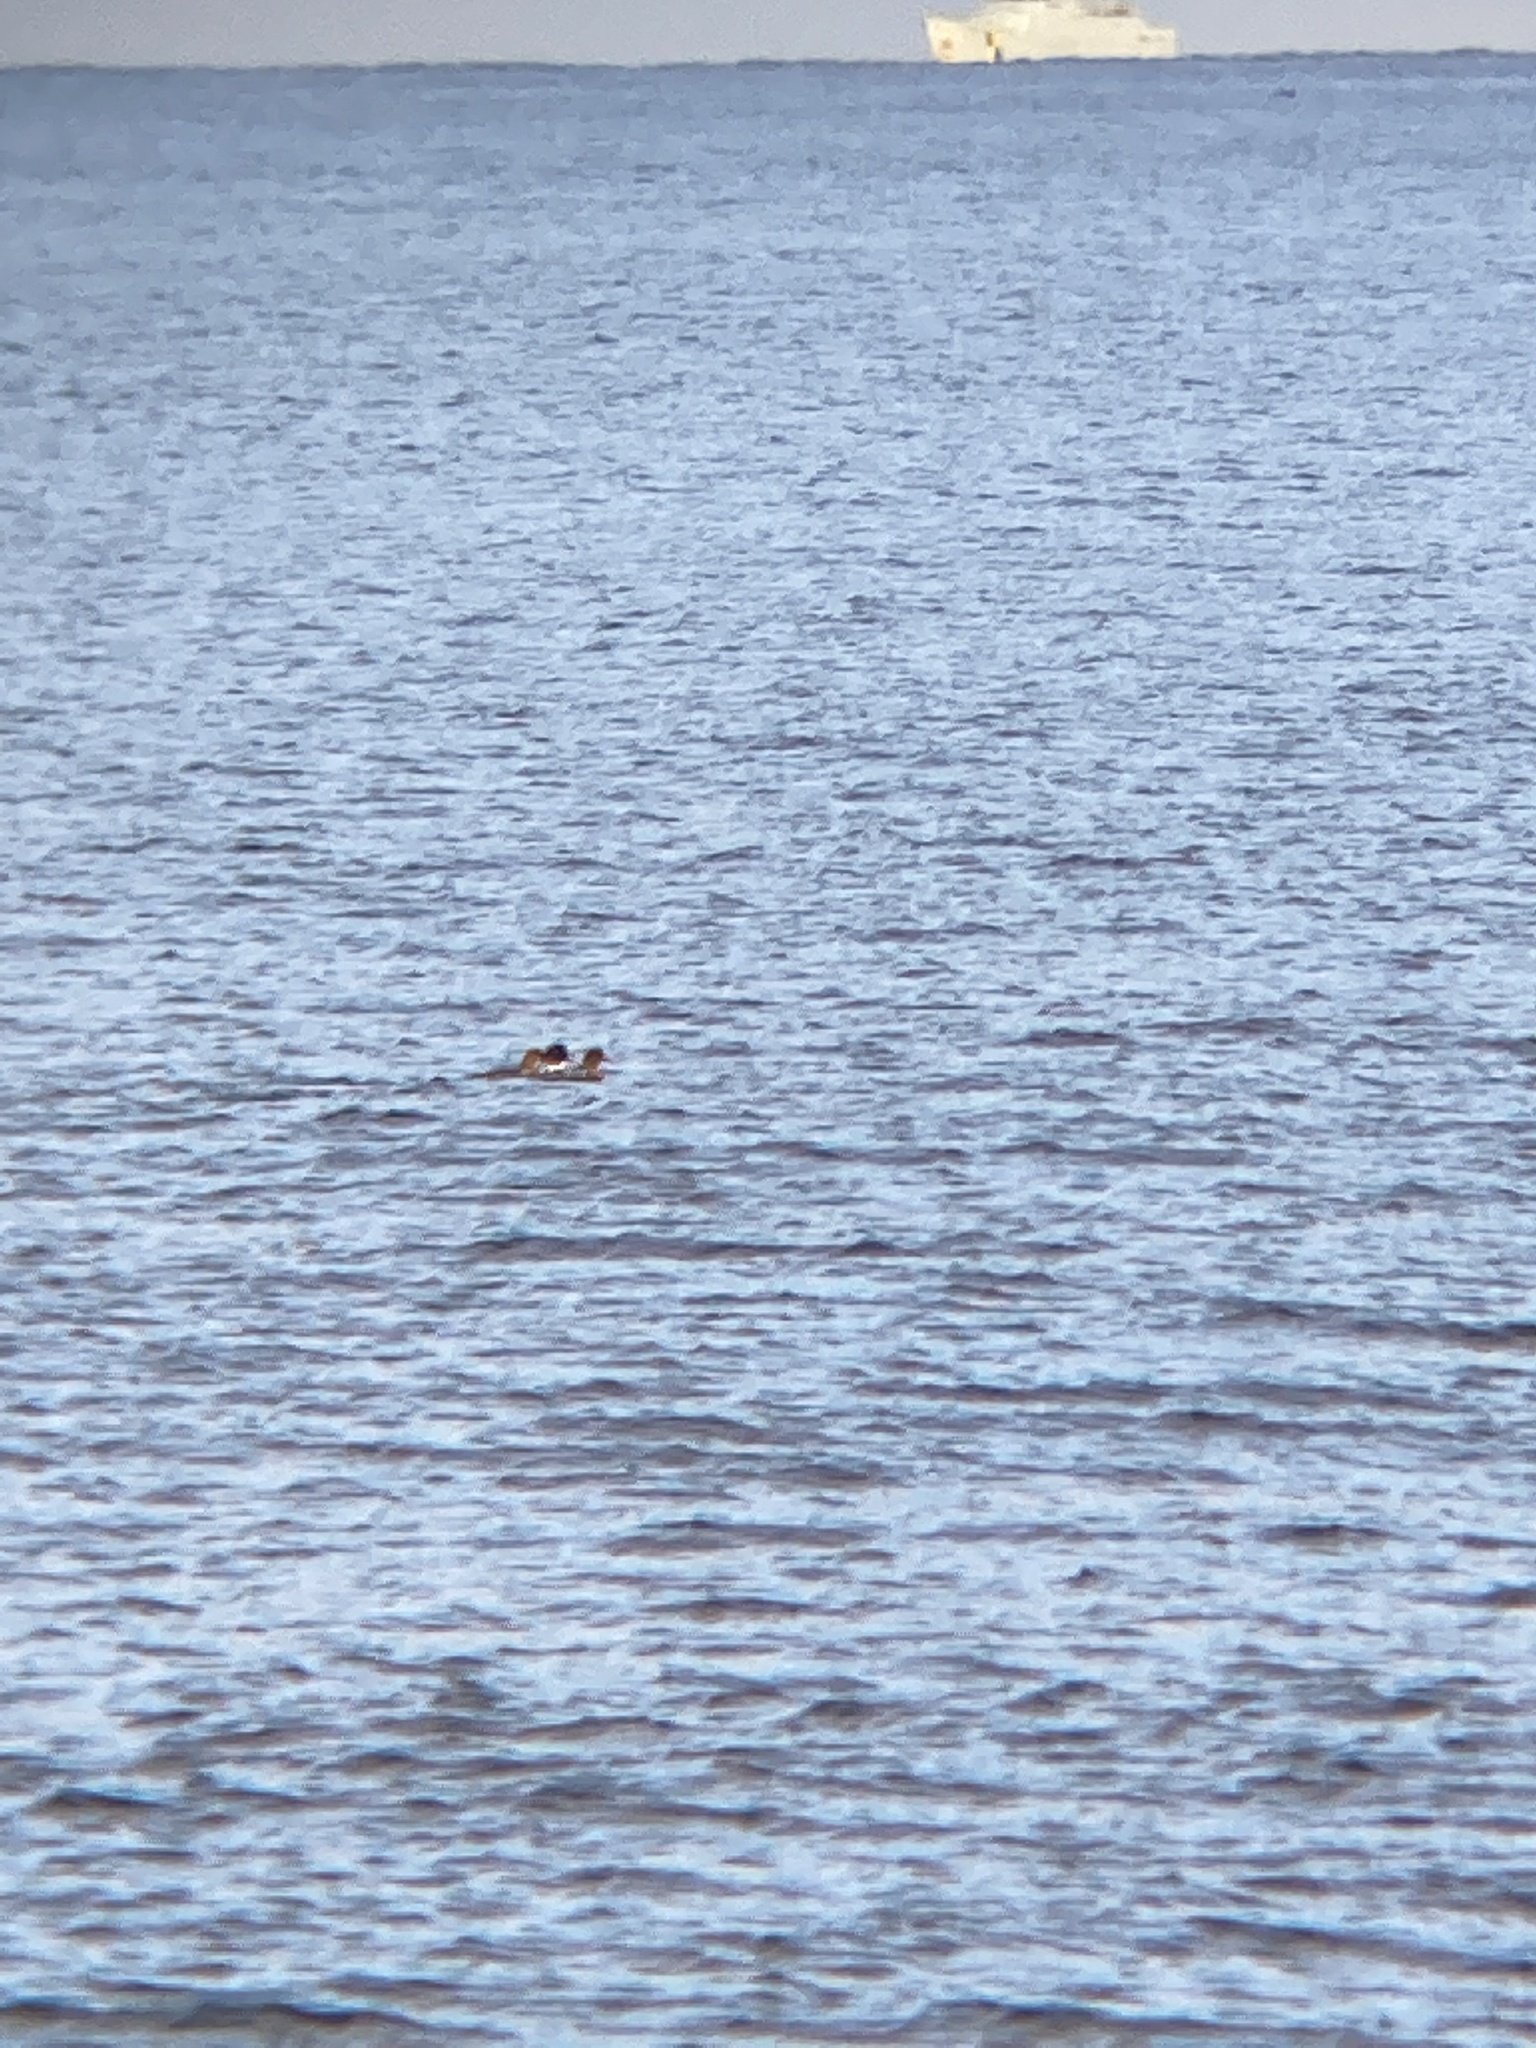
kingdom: Animalia
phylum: Chordata
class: Aves
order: Anseriformes
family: Anatidae
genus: Mergus
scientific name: Mergus serrator
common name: Red-breasted merganser
